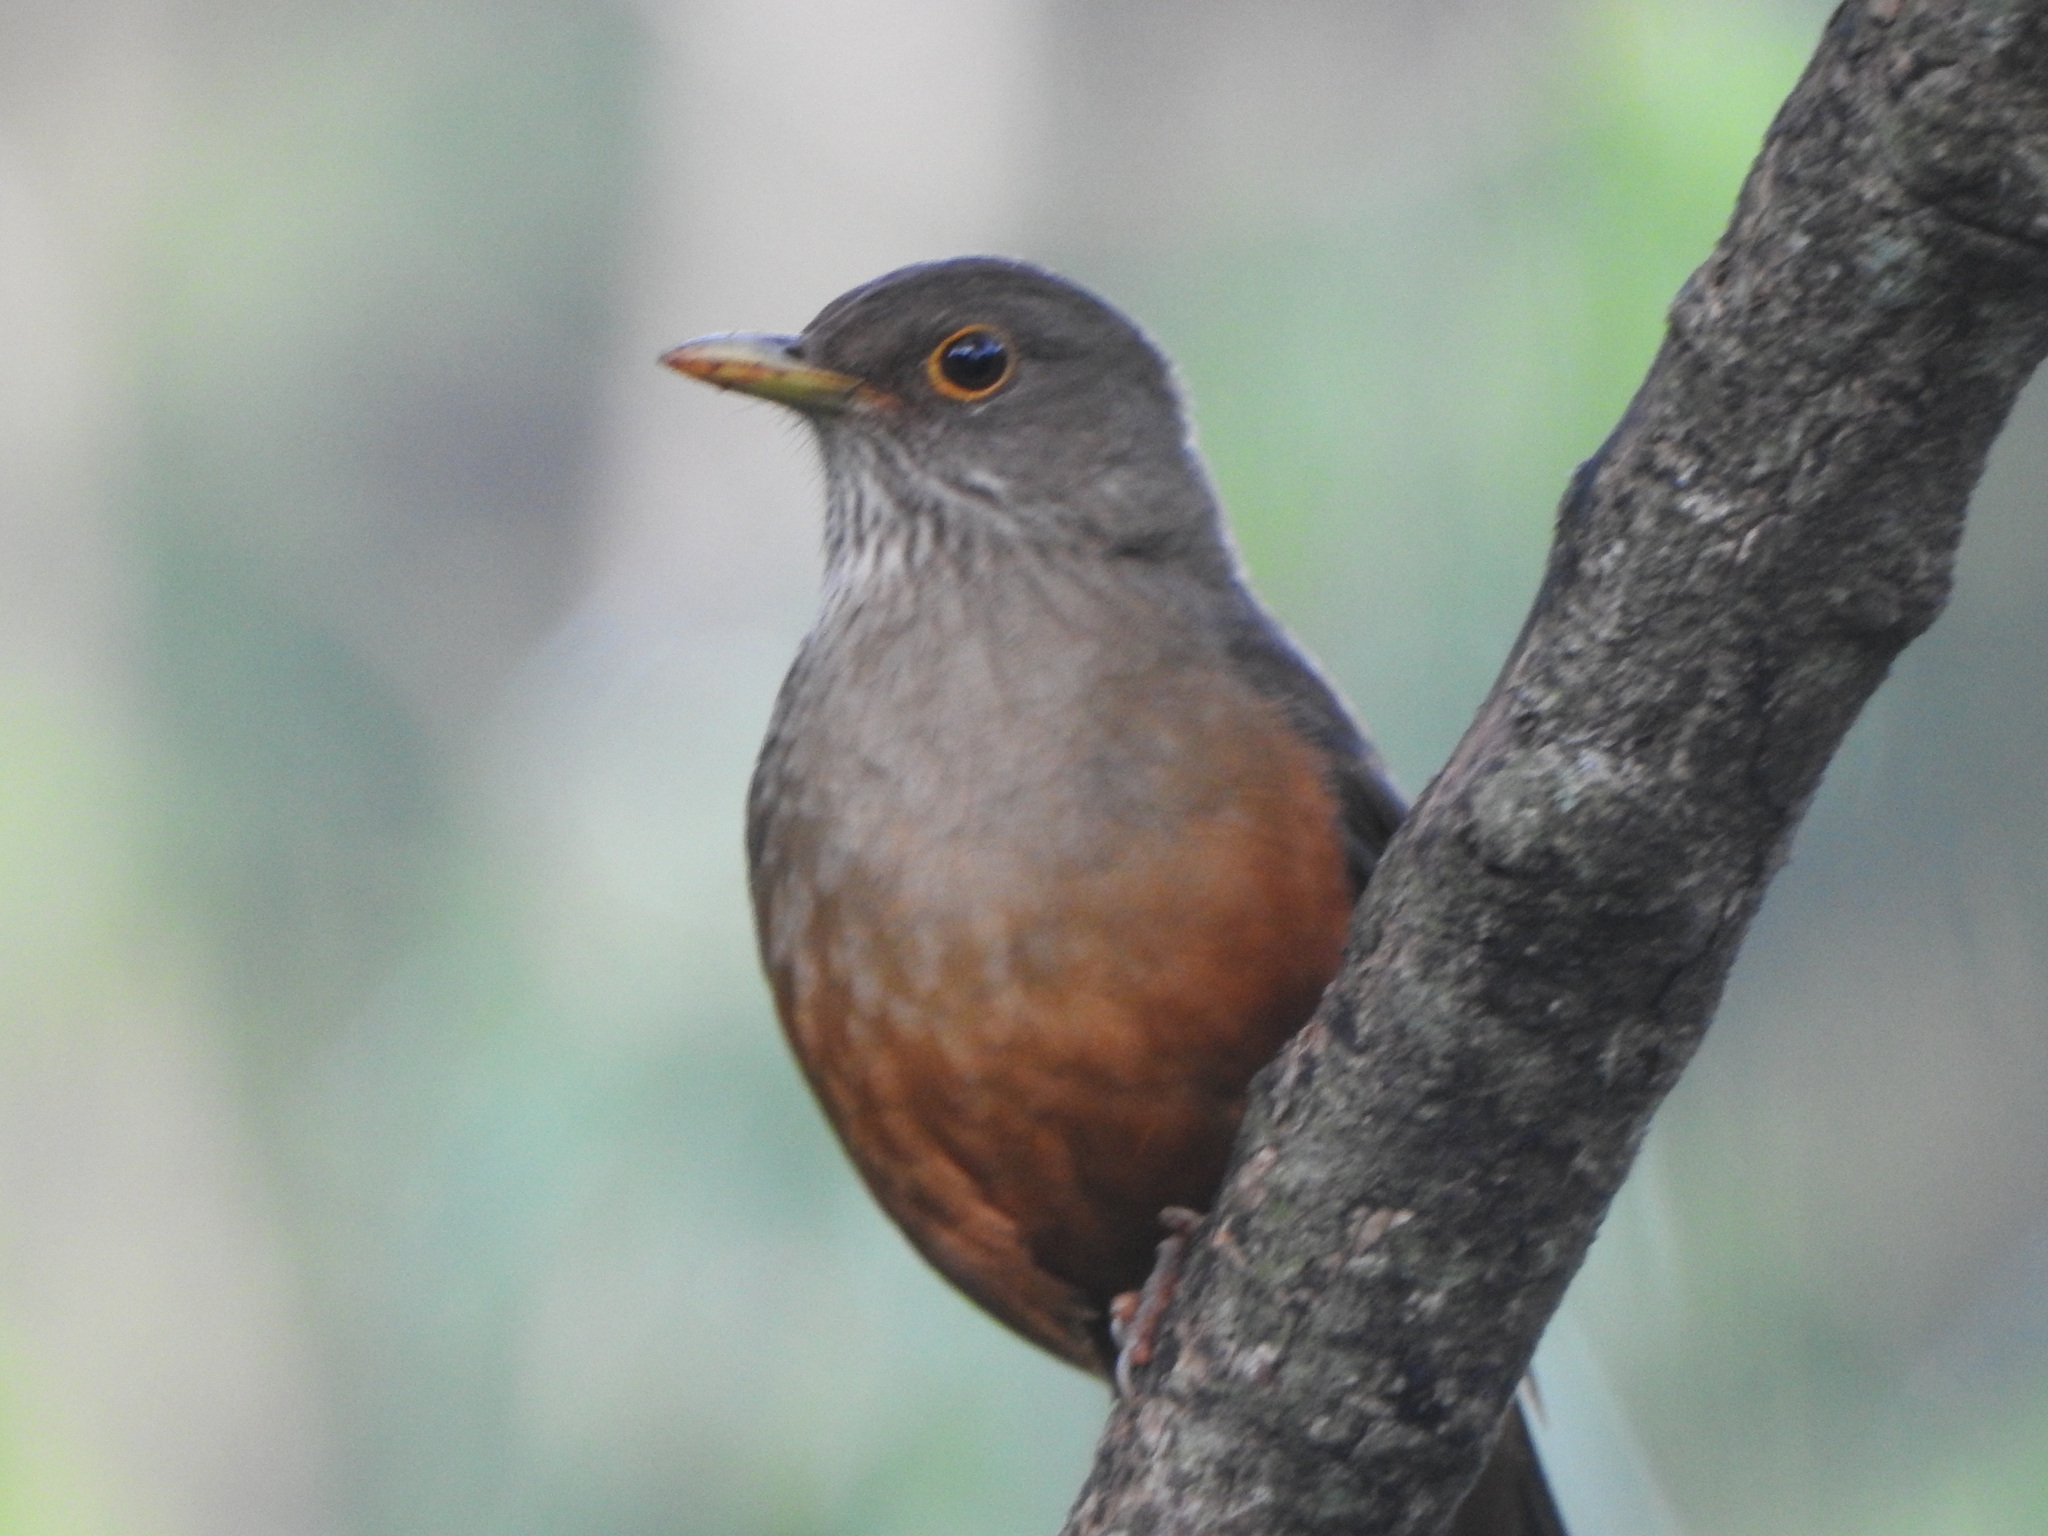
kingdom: Animalia
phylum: Chordata
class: Aves
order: Passeriformes
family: Turdidae
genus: Turdus
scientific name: Turdus rufiventris
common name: Rufous-bellied thrush
